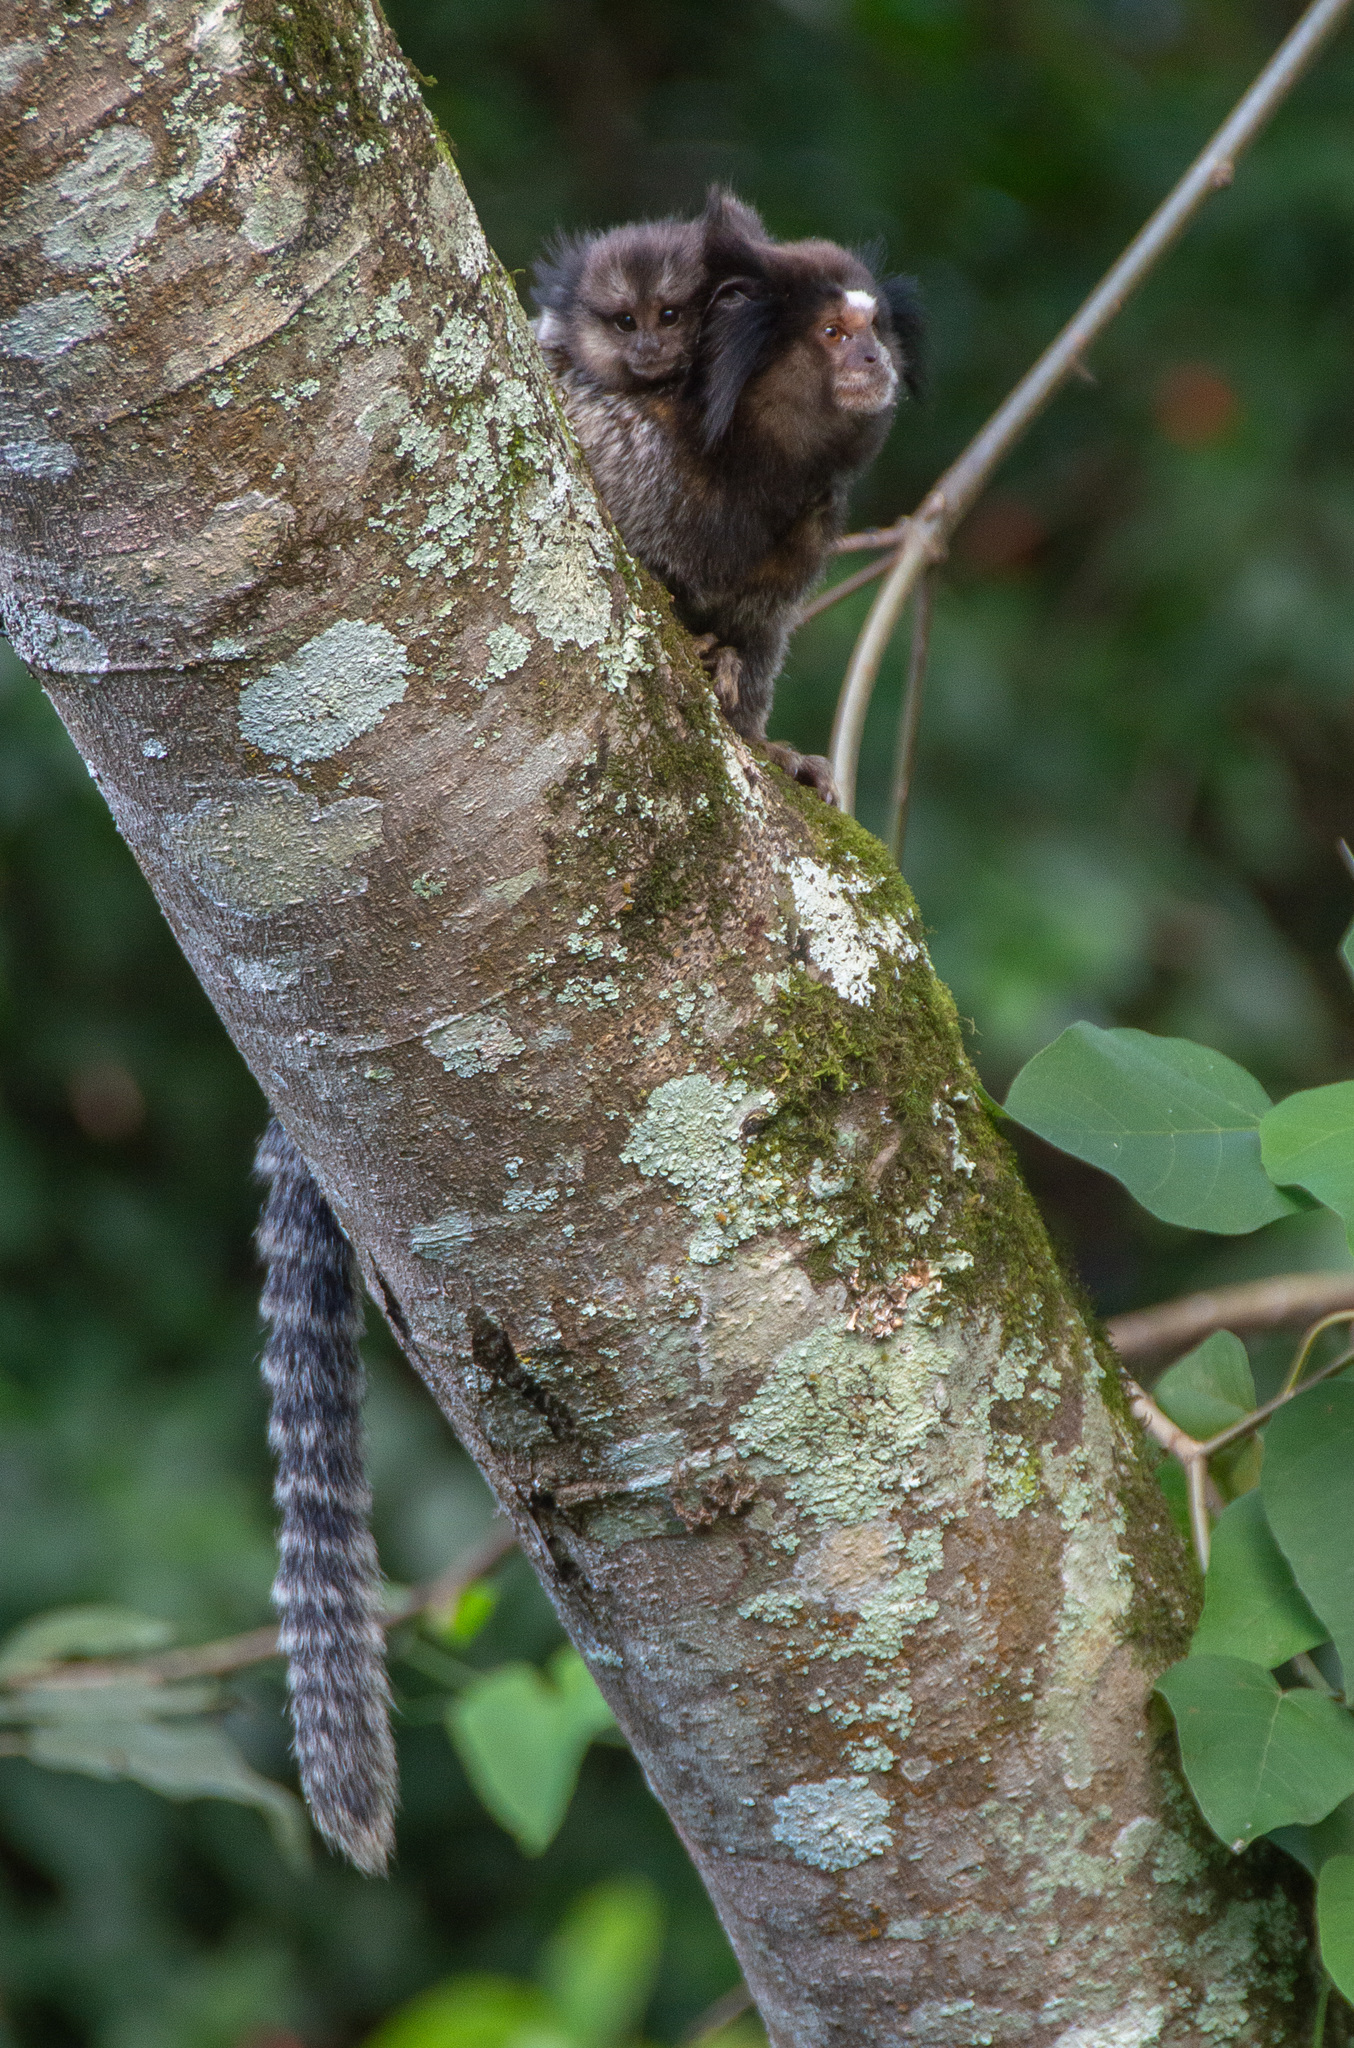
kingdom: Animalia
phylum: Chordata
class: Mammalia
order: Primates
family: Callitrichidae
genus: Callithrix
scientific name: Callithrix penicillata
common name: Black-tufted marmoset
